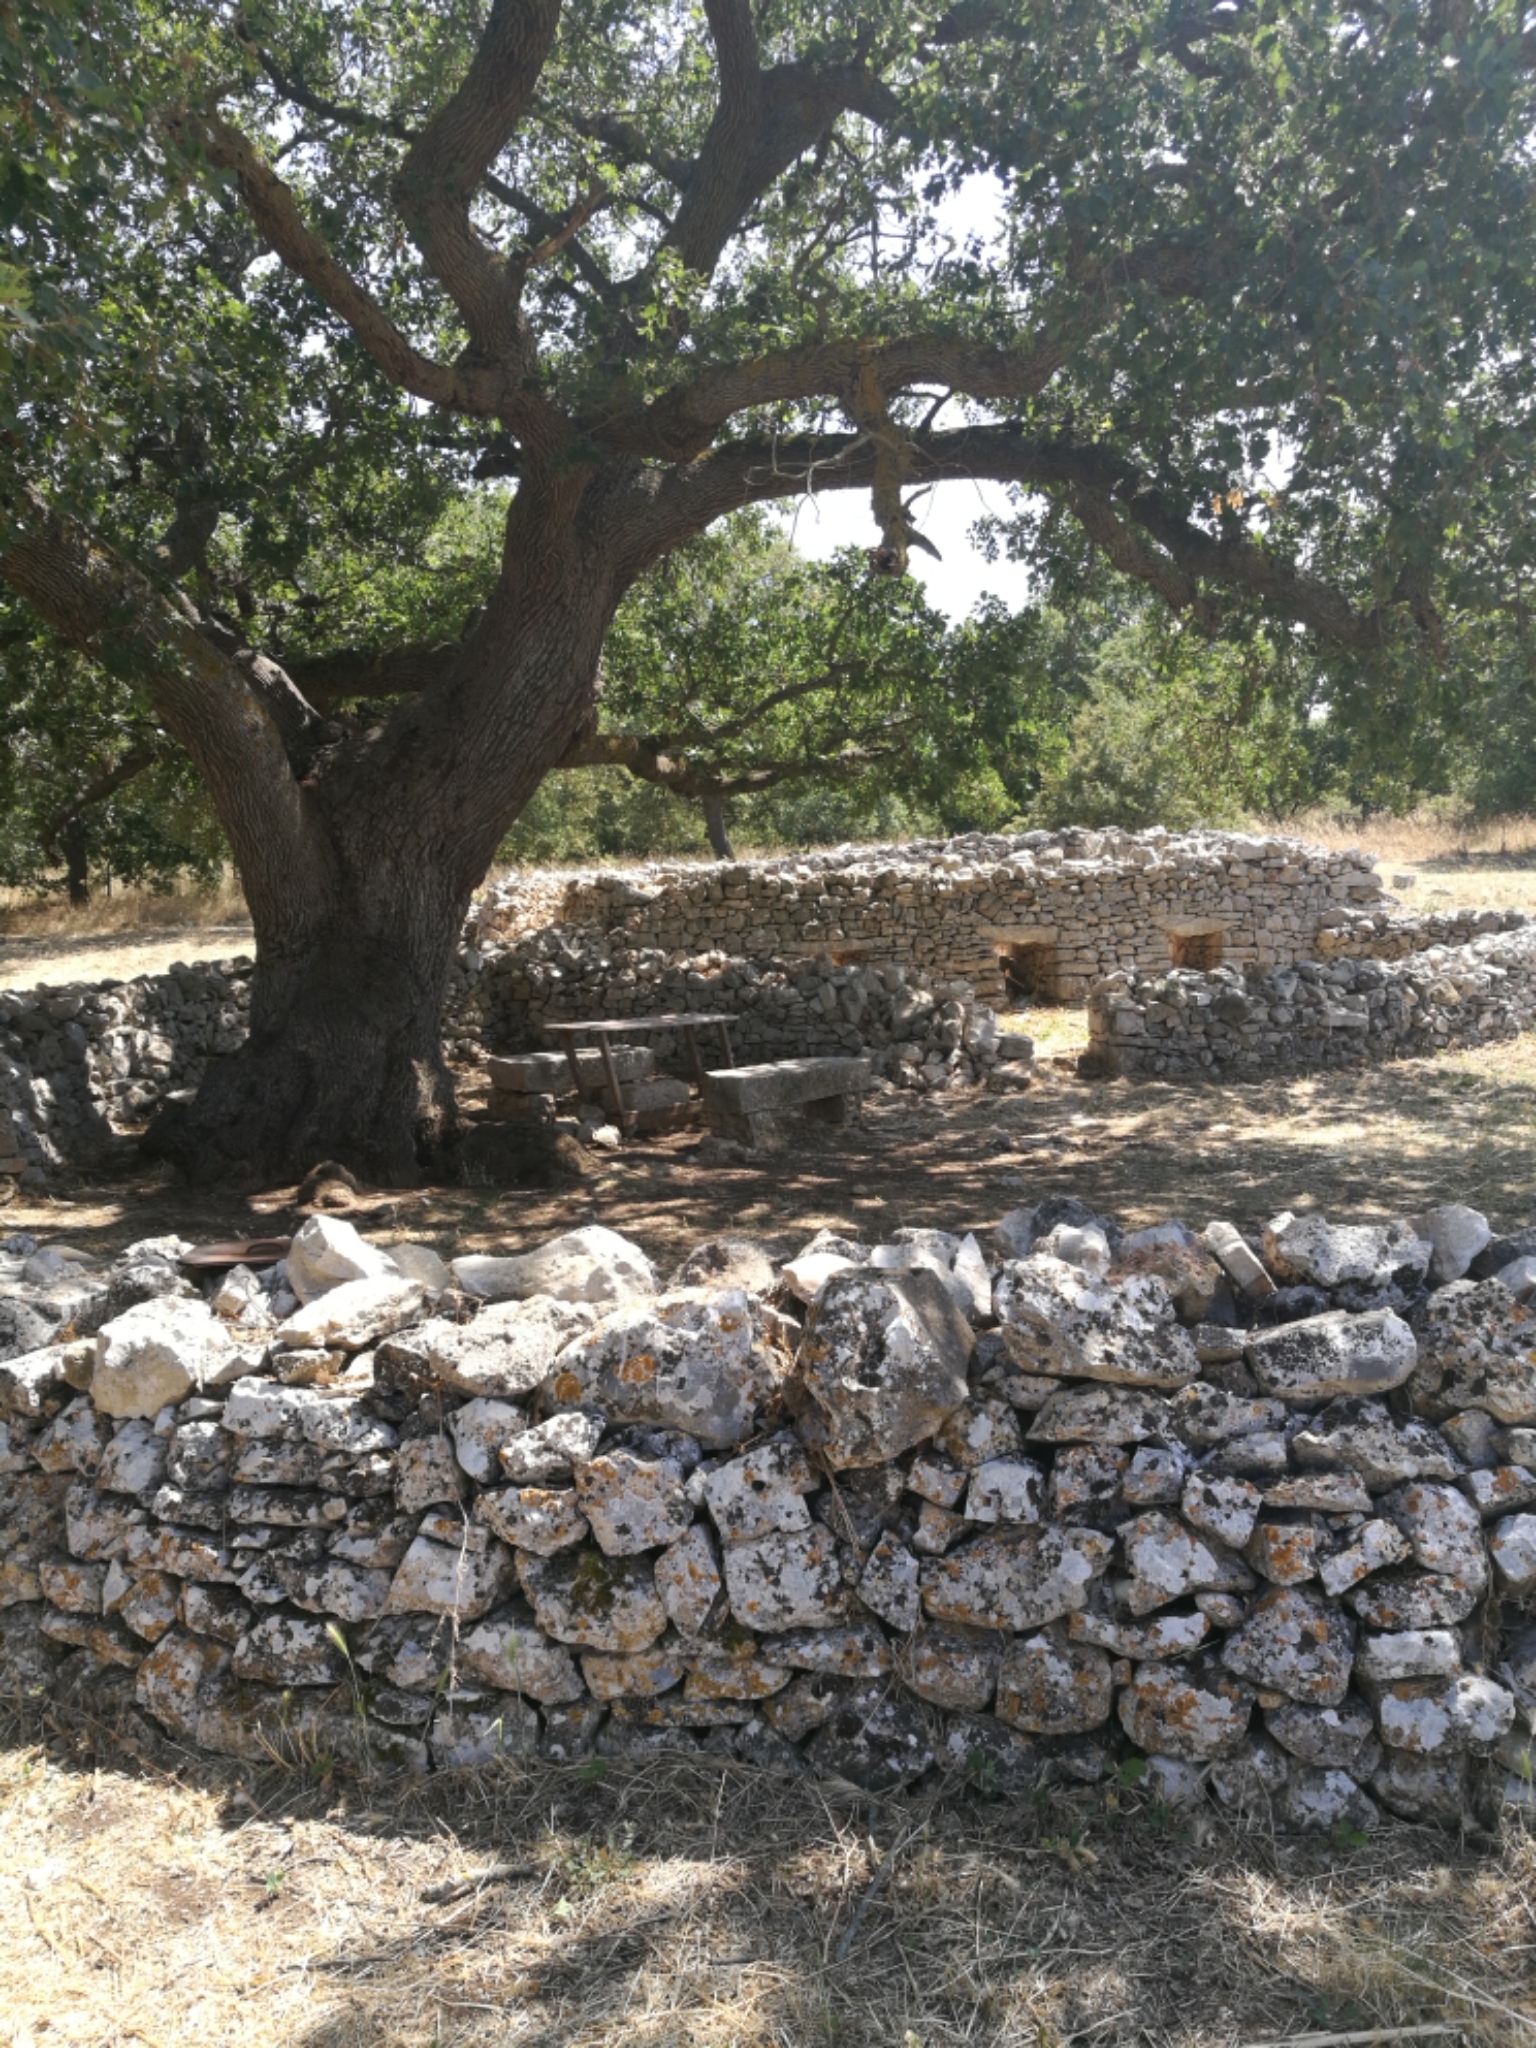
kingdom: Plantae
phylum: Tracheophyta
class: Magnoliopsida
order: Fagales
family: Fagaceae
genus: Quercus
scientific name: Quercus pubescens
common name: Downy oak
